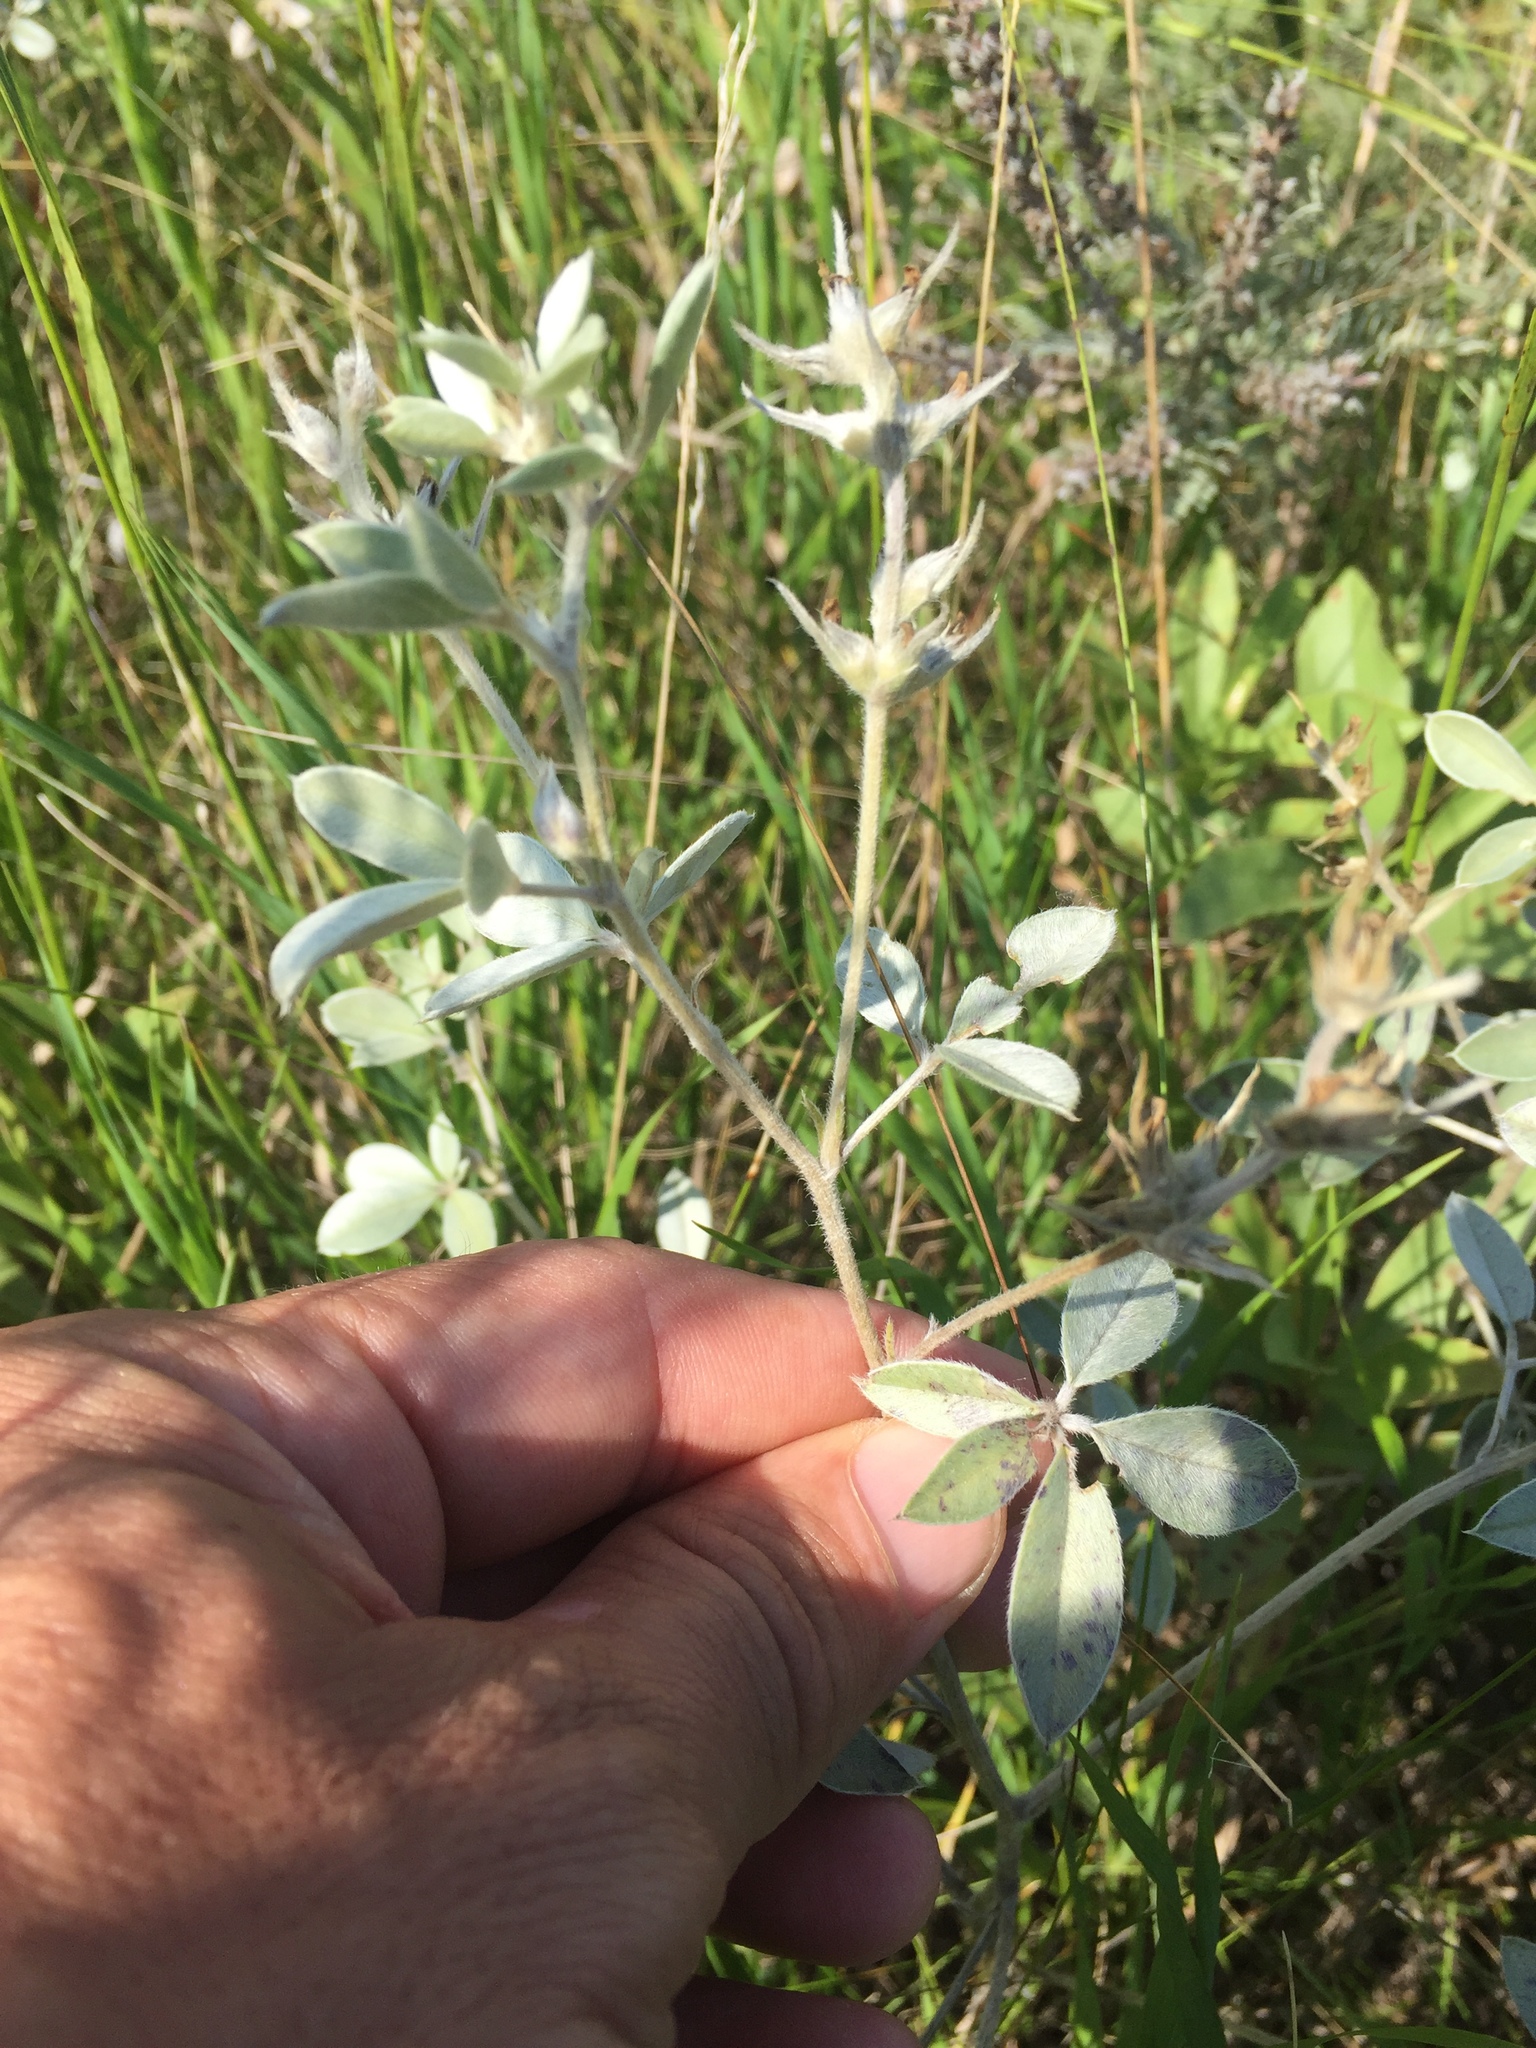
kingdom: Plantae
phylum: Tracheophyta
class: Magnoliopsida
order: Fabales
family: Fabaceae
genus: Pediomelum
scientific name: Pediomelum argophyllum
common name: Silver-leaved indian breadroot
